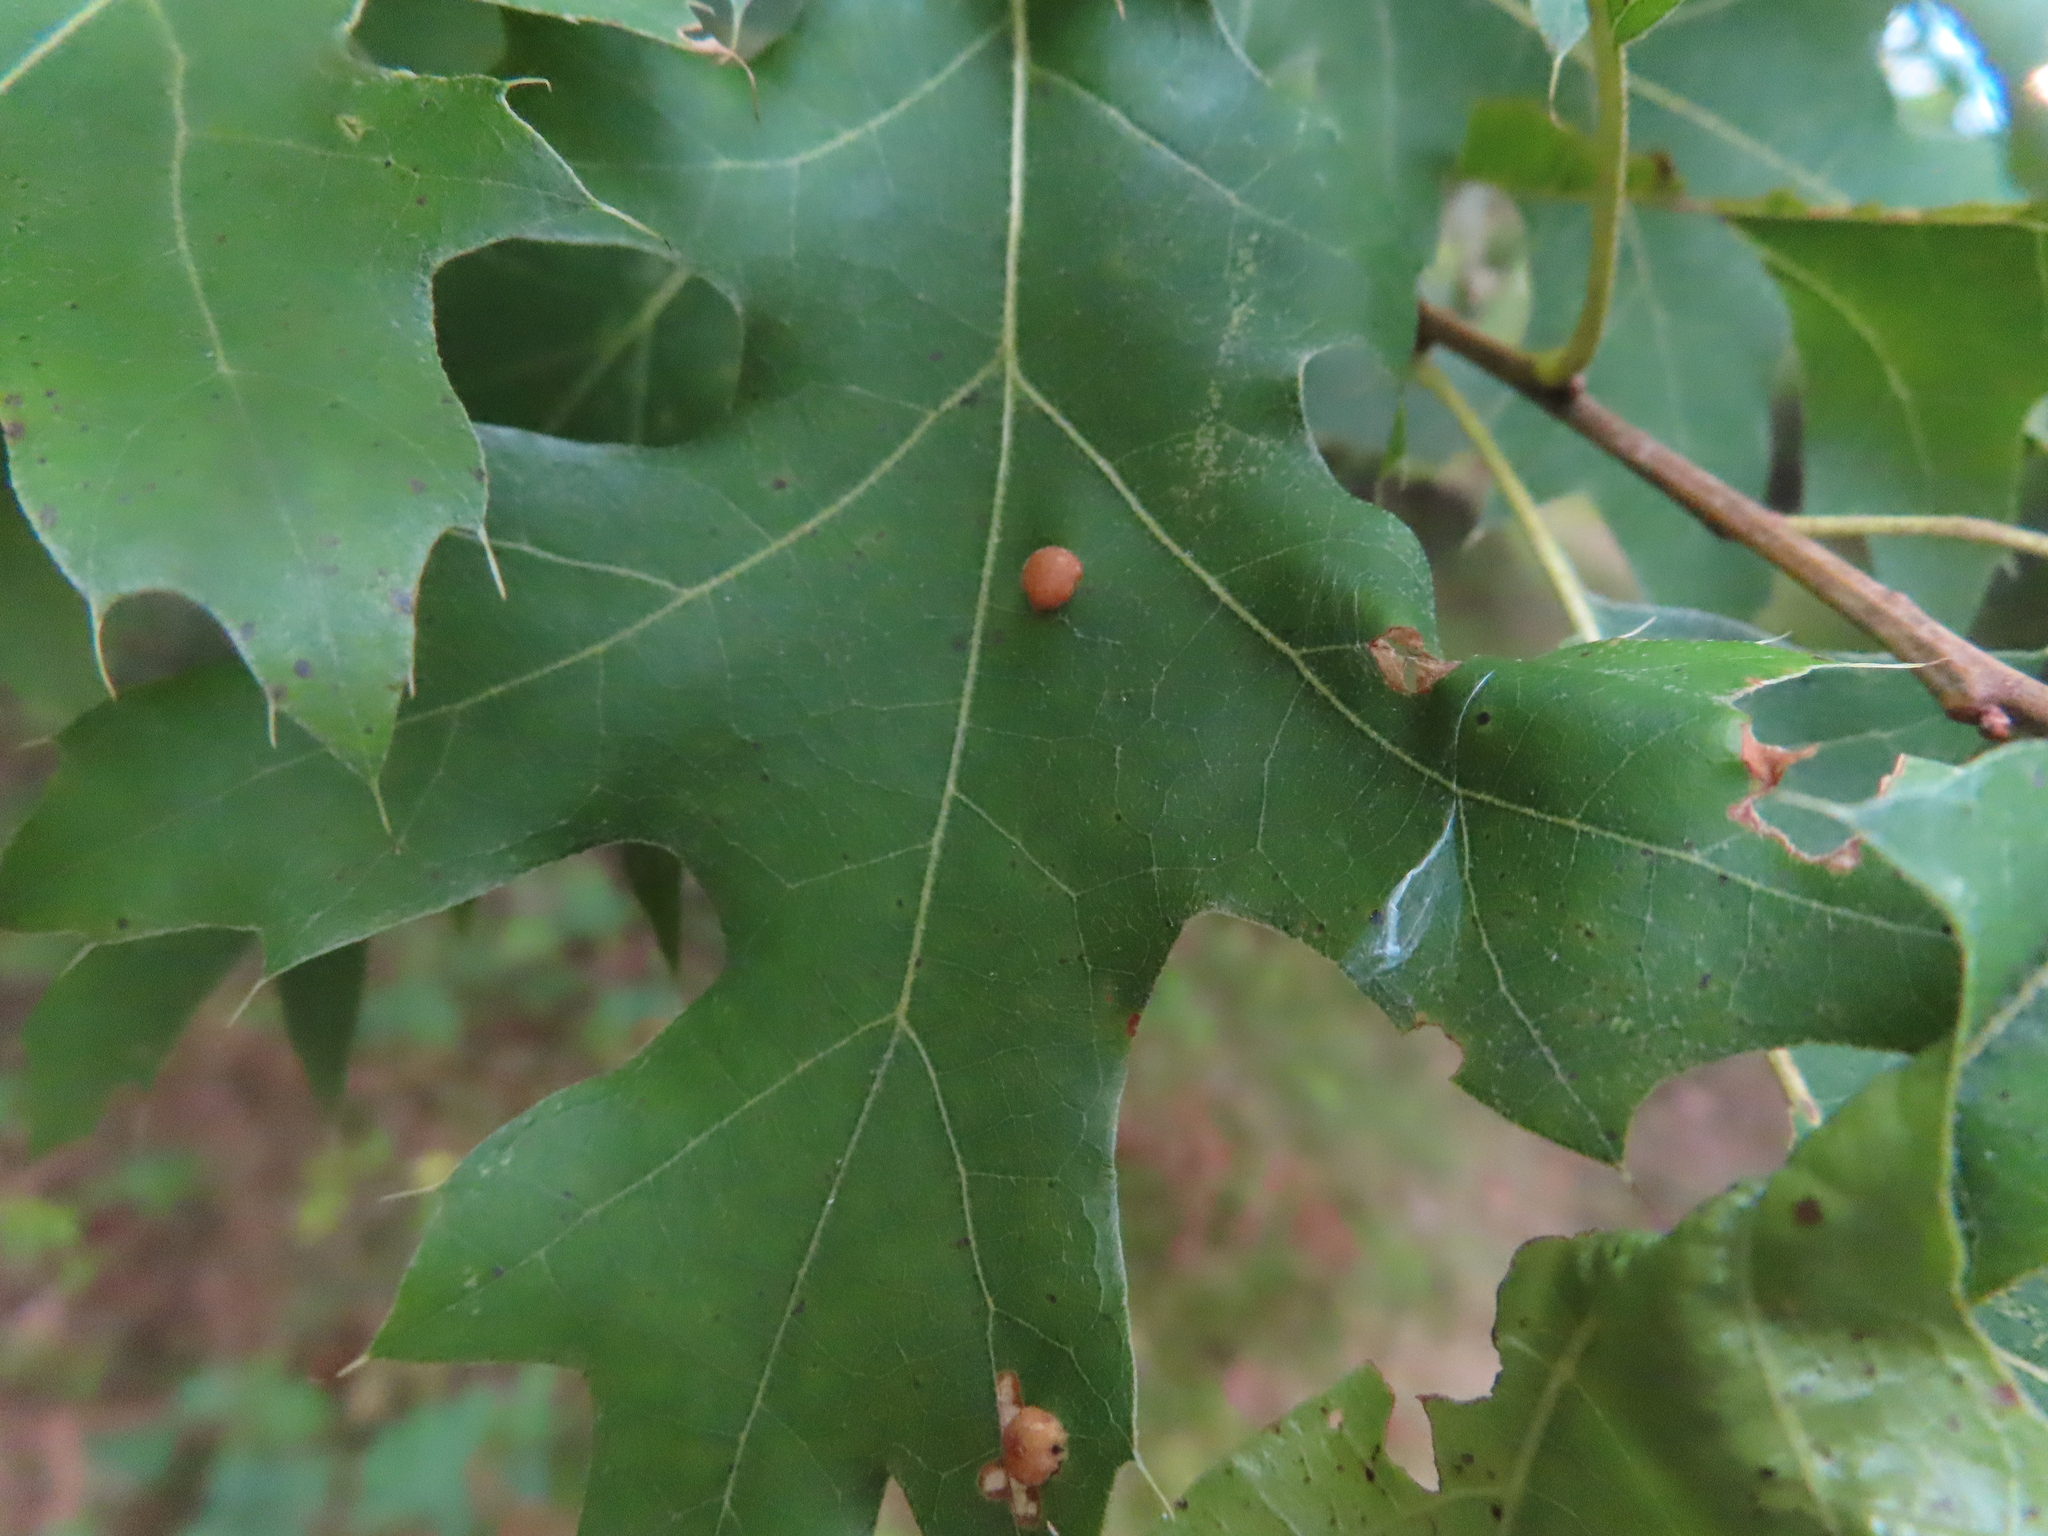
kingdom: Animalia
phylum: Arthropoda
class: Insecta
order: Diptera
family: Cecidomyiidae
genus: Polystepha
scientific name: Polystepha pilulae
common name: Oak leaf gall midge
